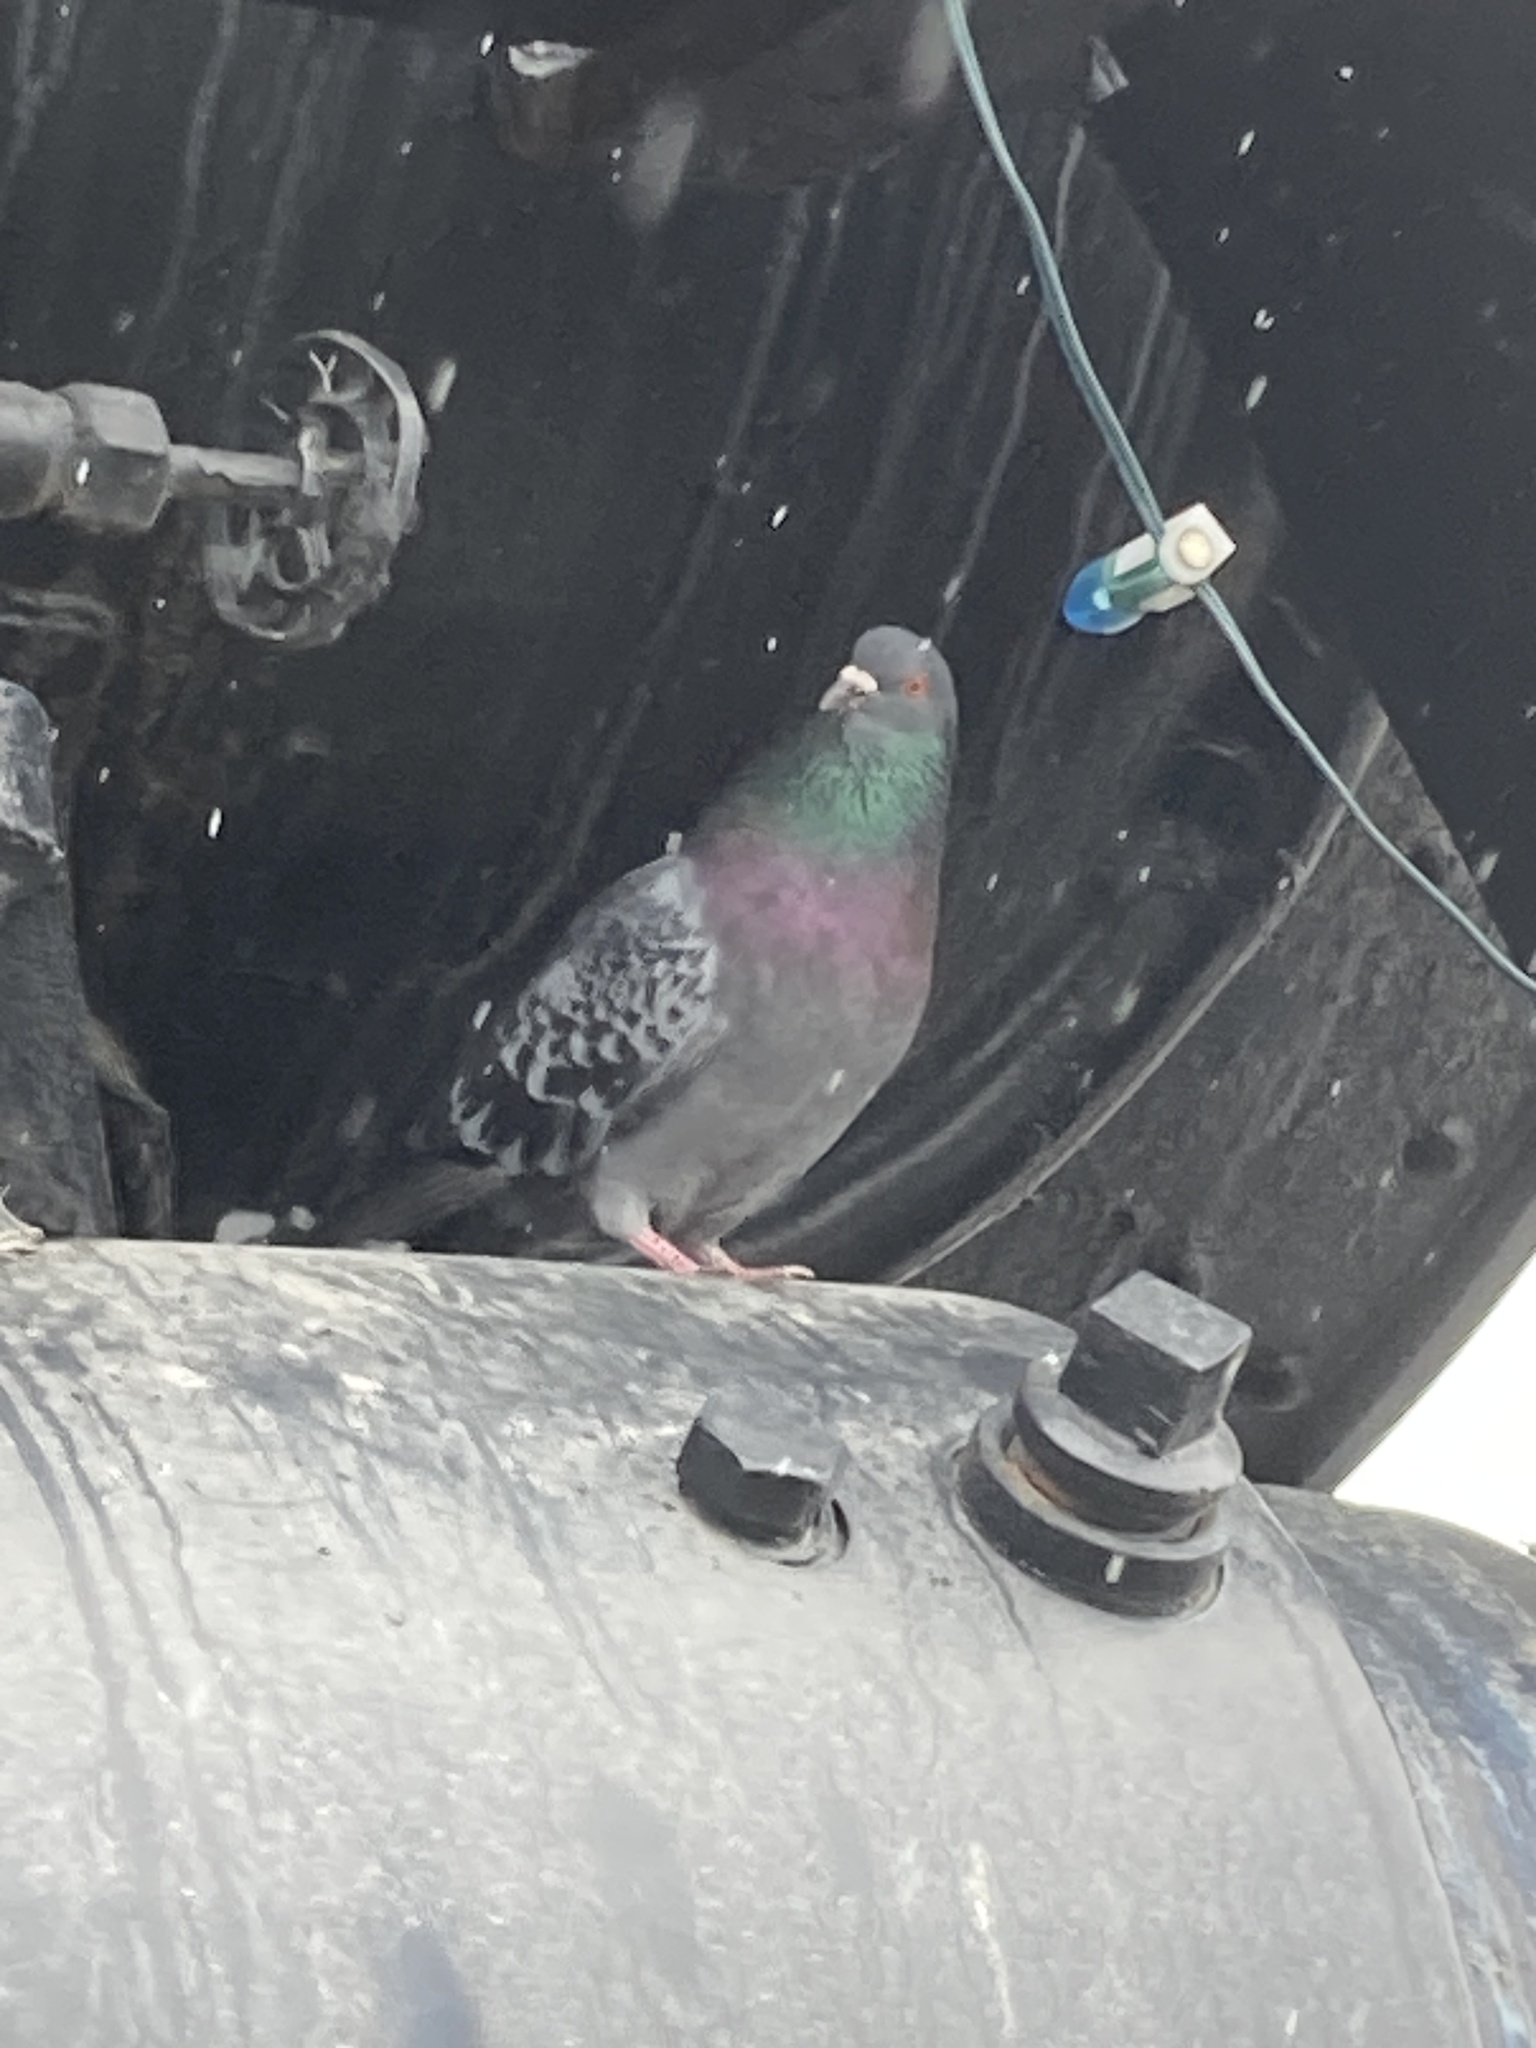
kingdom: Animalia
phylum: Chordata
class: Aves
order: Columbiformes
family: Columbidae
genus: Columba
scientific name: Columba livia
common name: Rock pigeon
